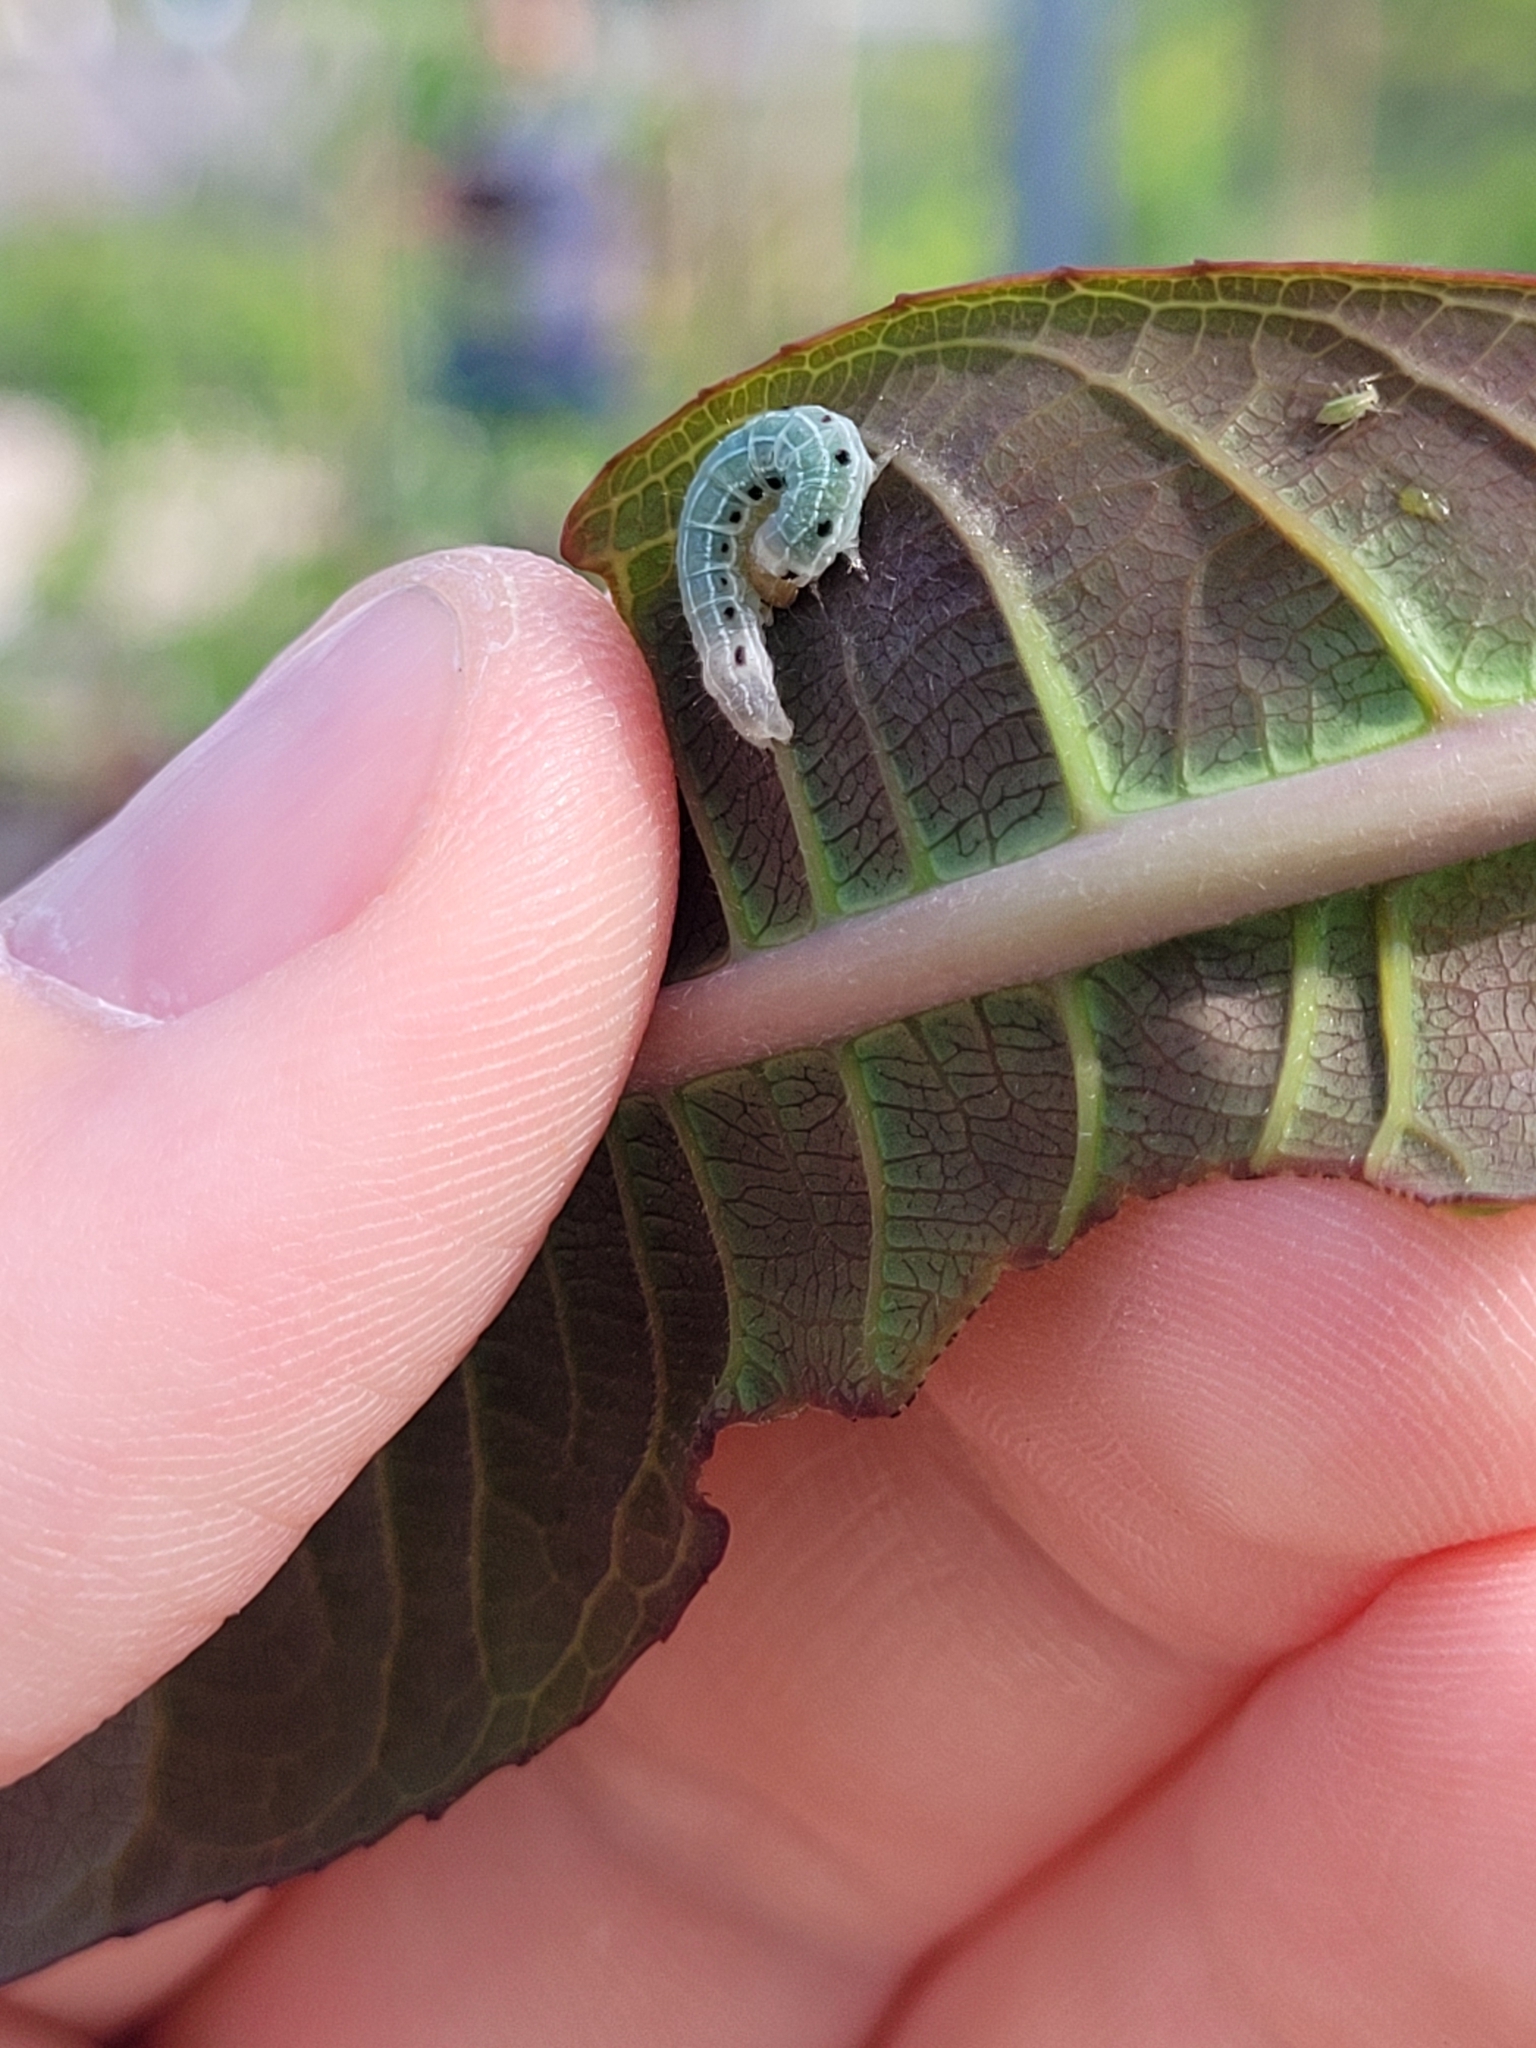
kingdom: Animalia
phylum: Arthropoda
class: Insecta
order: Lepidoptera
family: Noctuidae
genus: Achatia
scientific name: Achatia confusa
